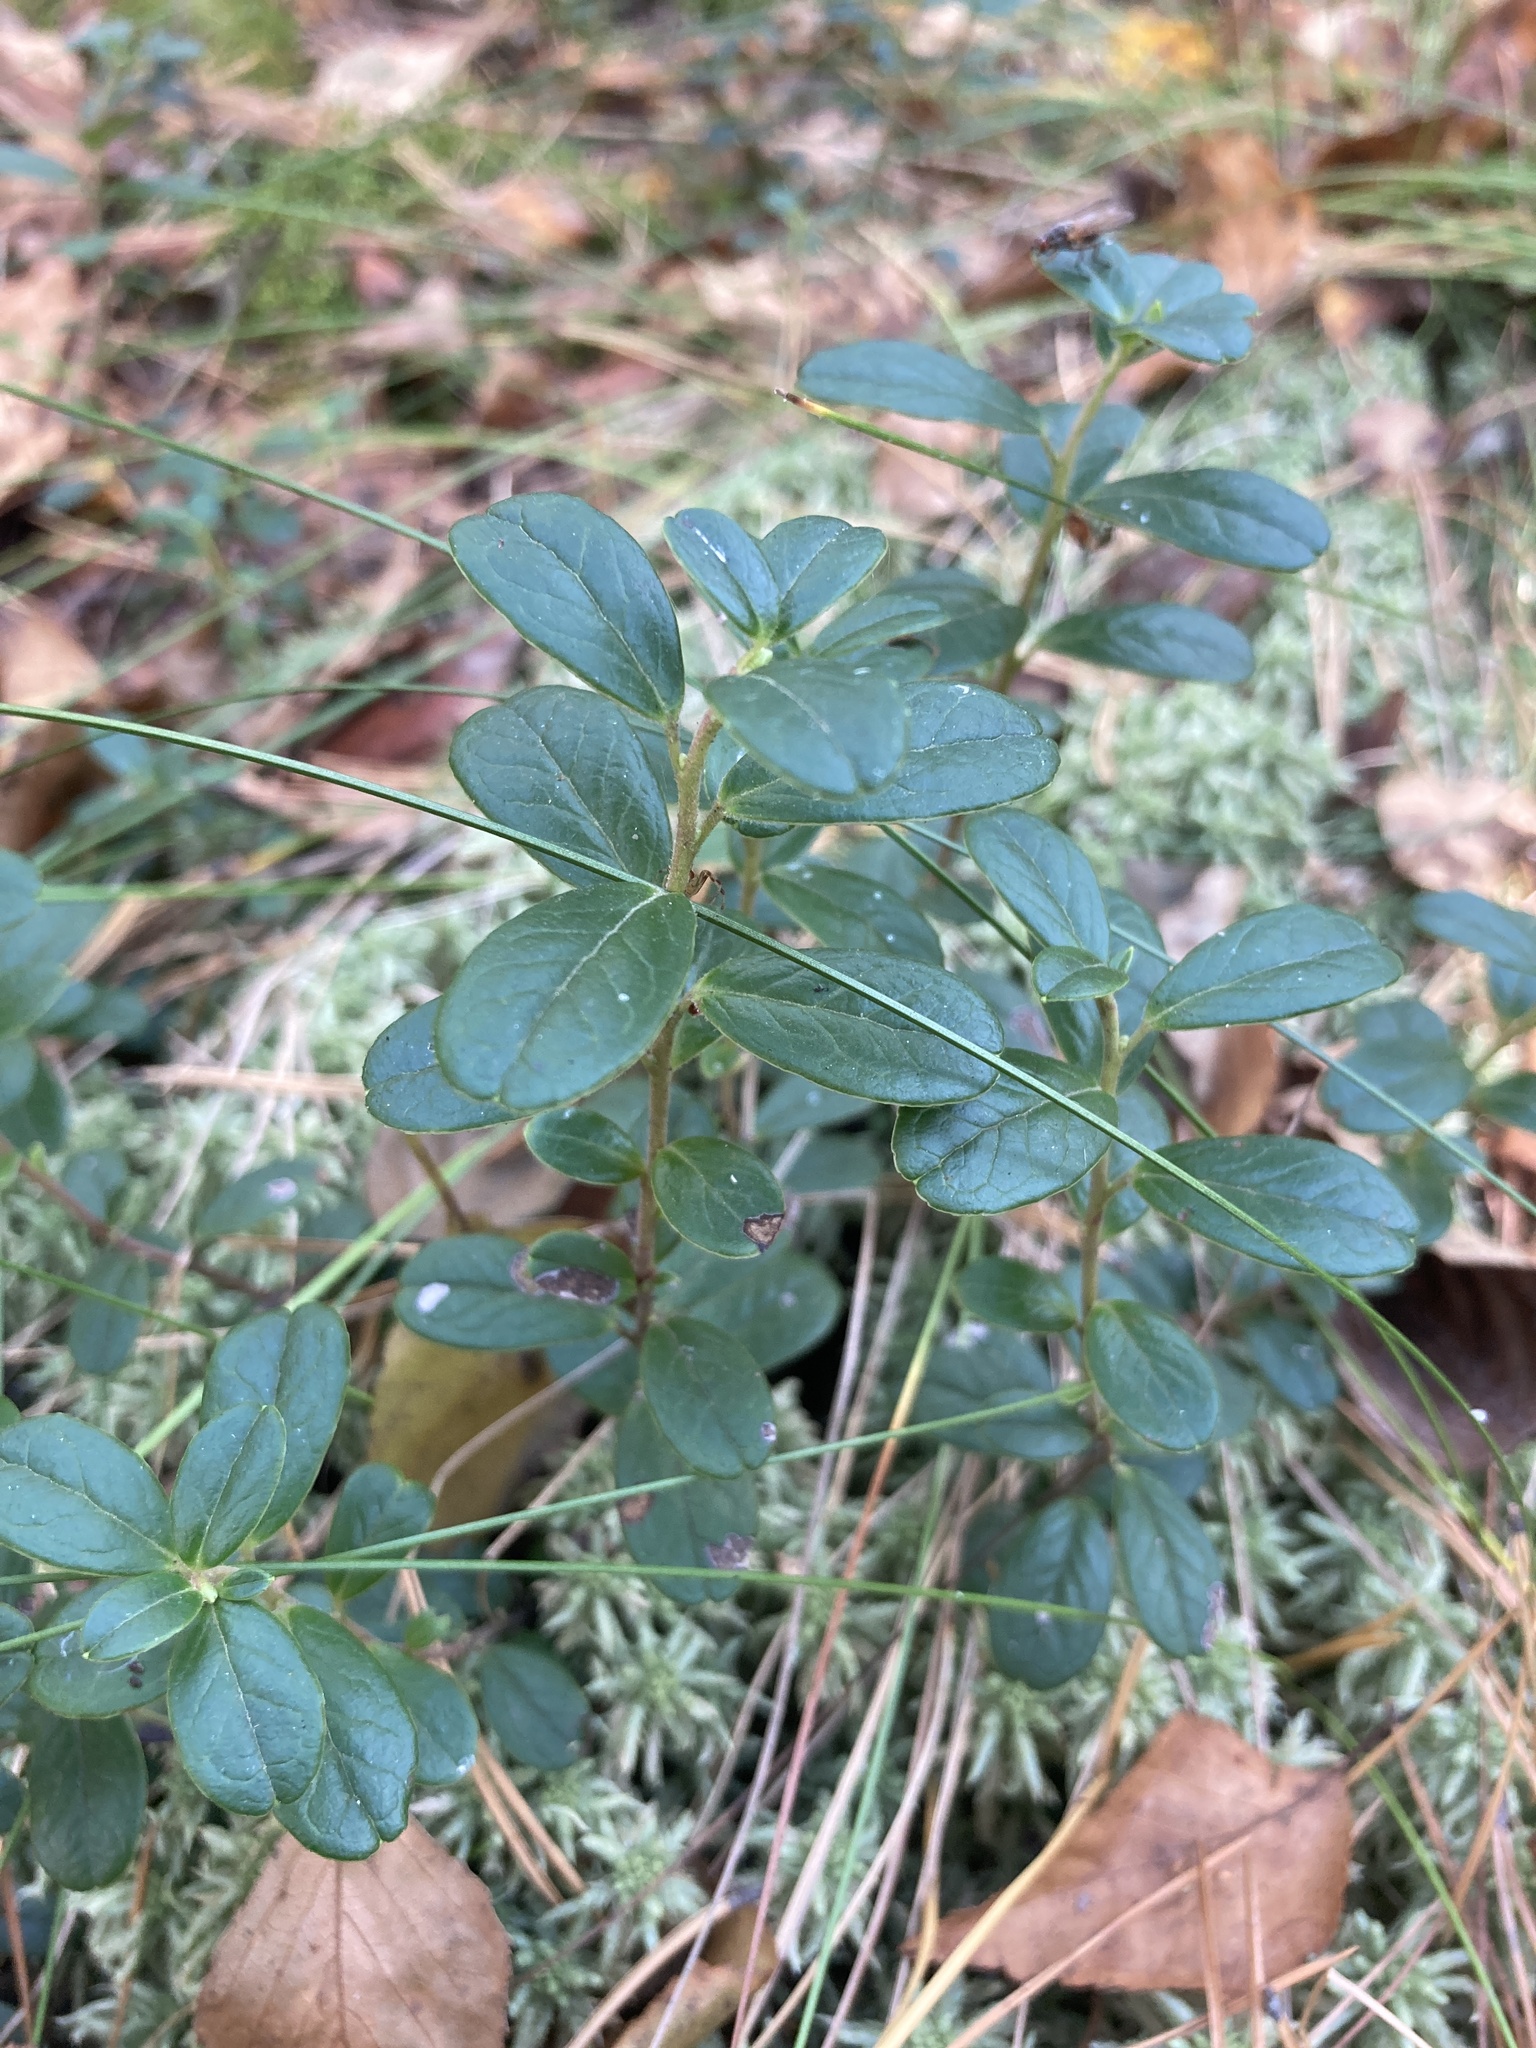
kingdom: Plantae
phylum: Tracheophyta
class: Magnoliopsida
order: Ericales
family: Ericaceae
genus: Vaccinium
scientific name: Vaccinium vitis-idaea
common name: Cowberry
